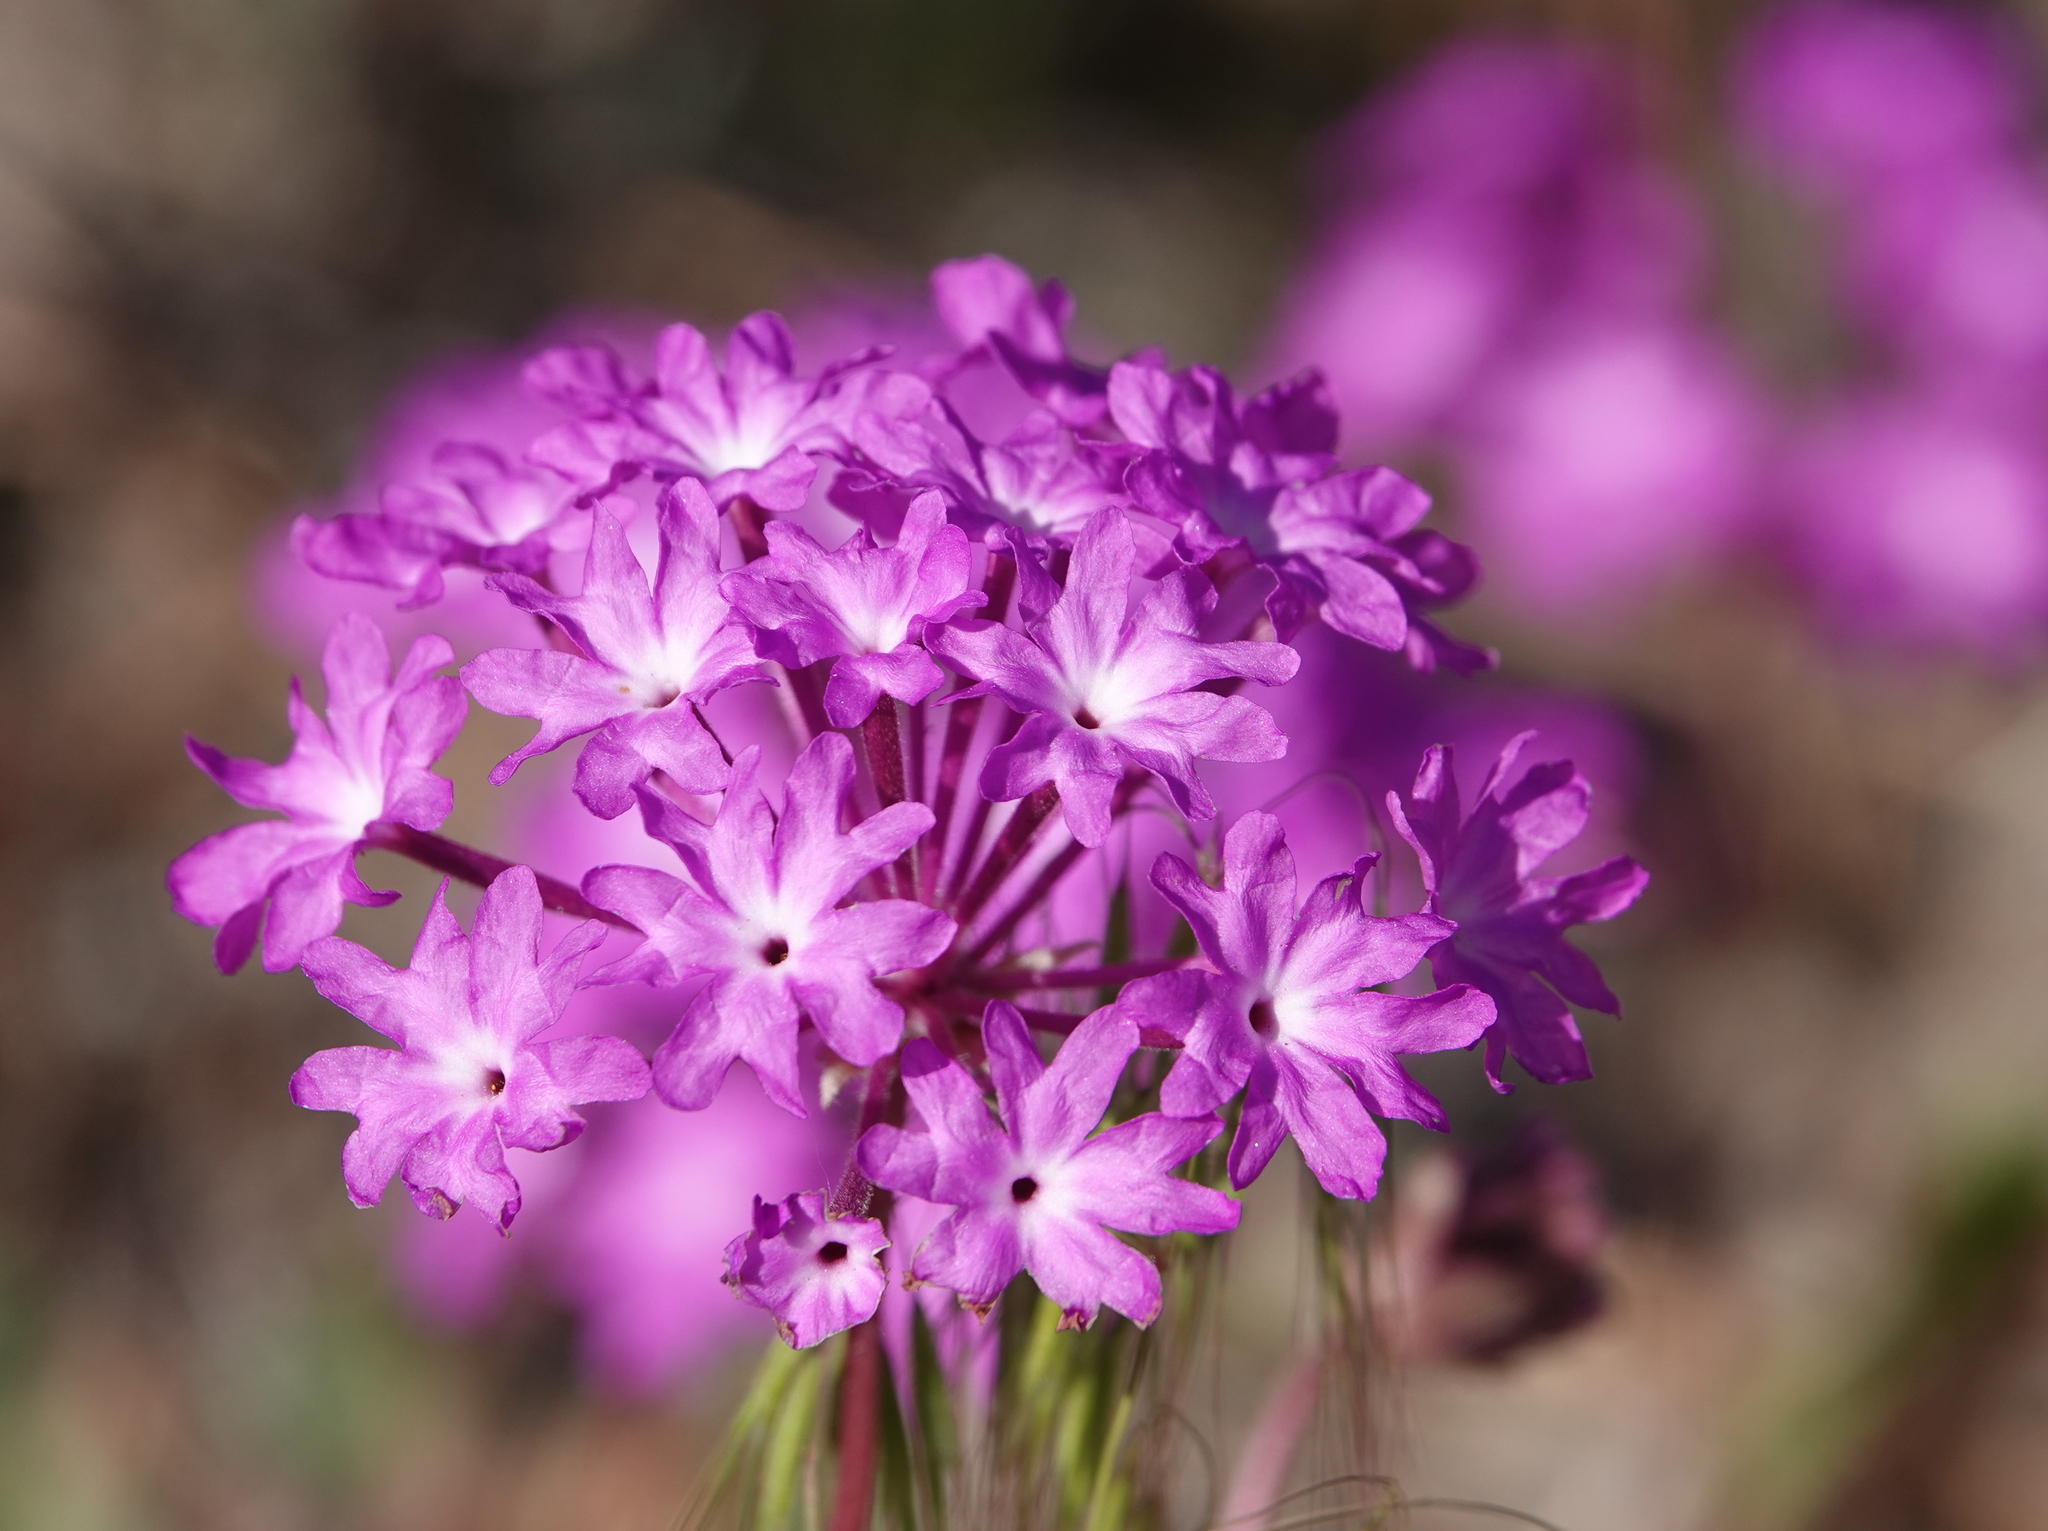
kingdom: Plantae
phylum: Tracheophyta
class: Magnoliopsida
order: Caryophyllales
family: Nyctaginaceae
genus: Abronia
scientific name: Abronia villosa
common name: Desert sand-verbena
